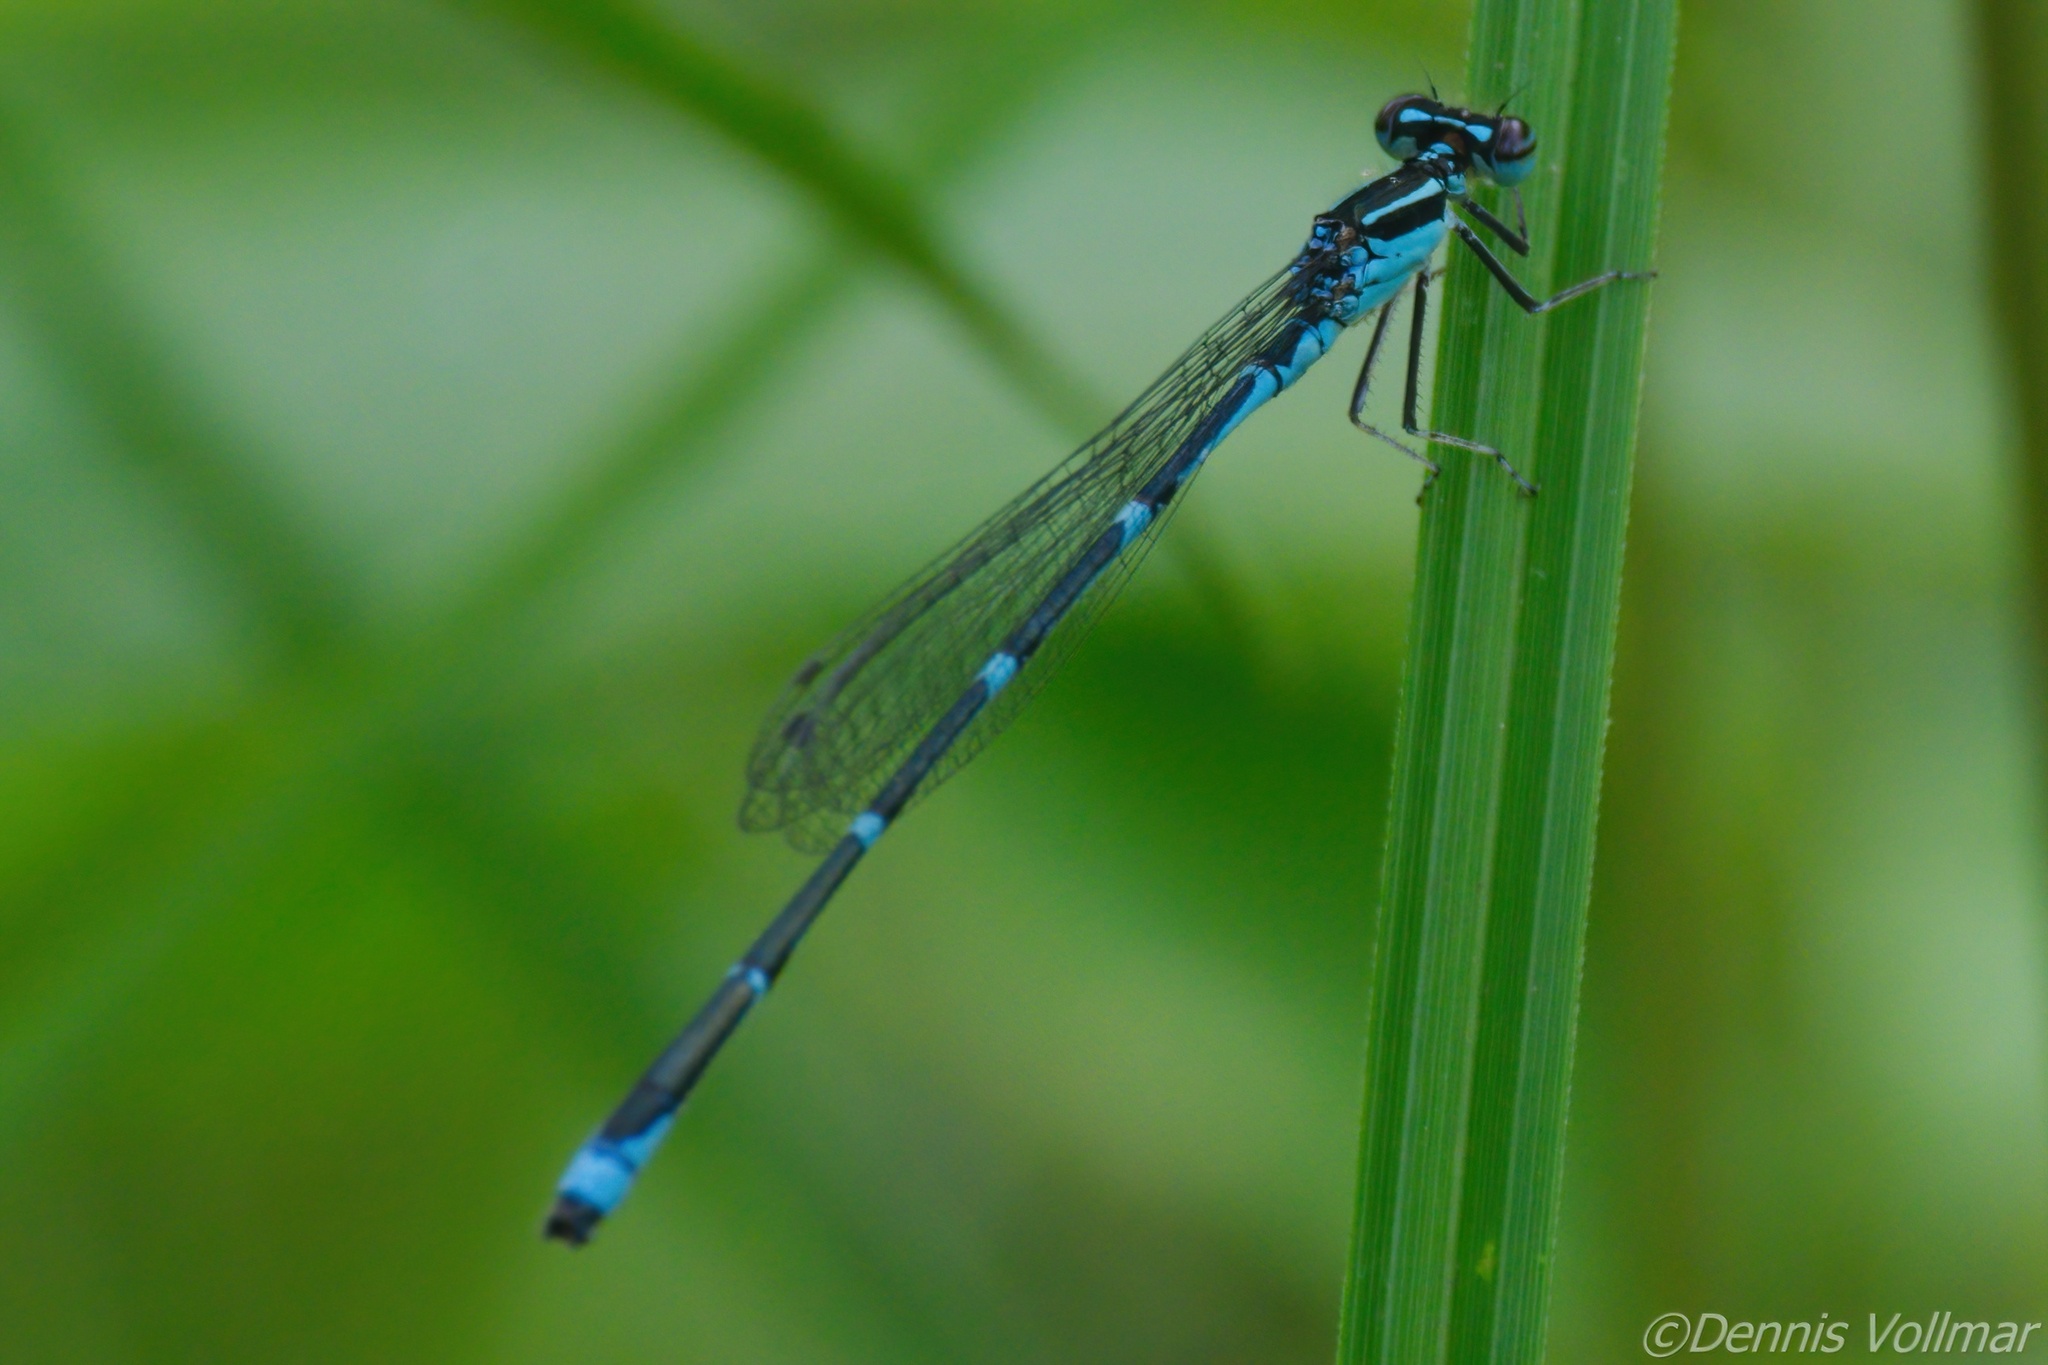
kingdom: Animalia
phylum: Arthropoda
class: Insecta
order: Odonata
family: Coenagrionidae
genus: Enallagma
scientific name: Enallagma exsulans
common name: Stream bluet
